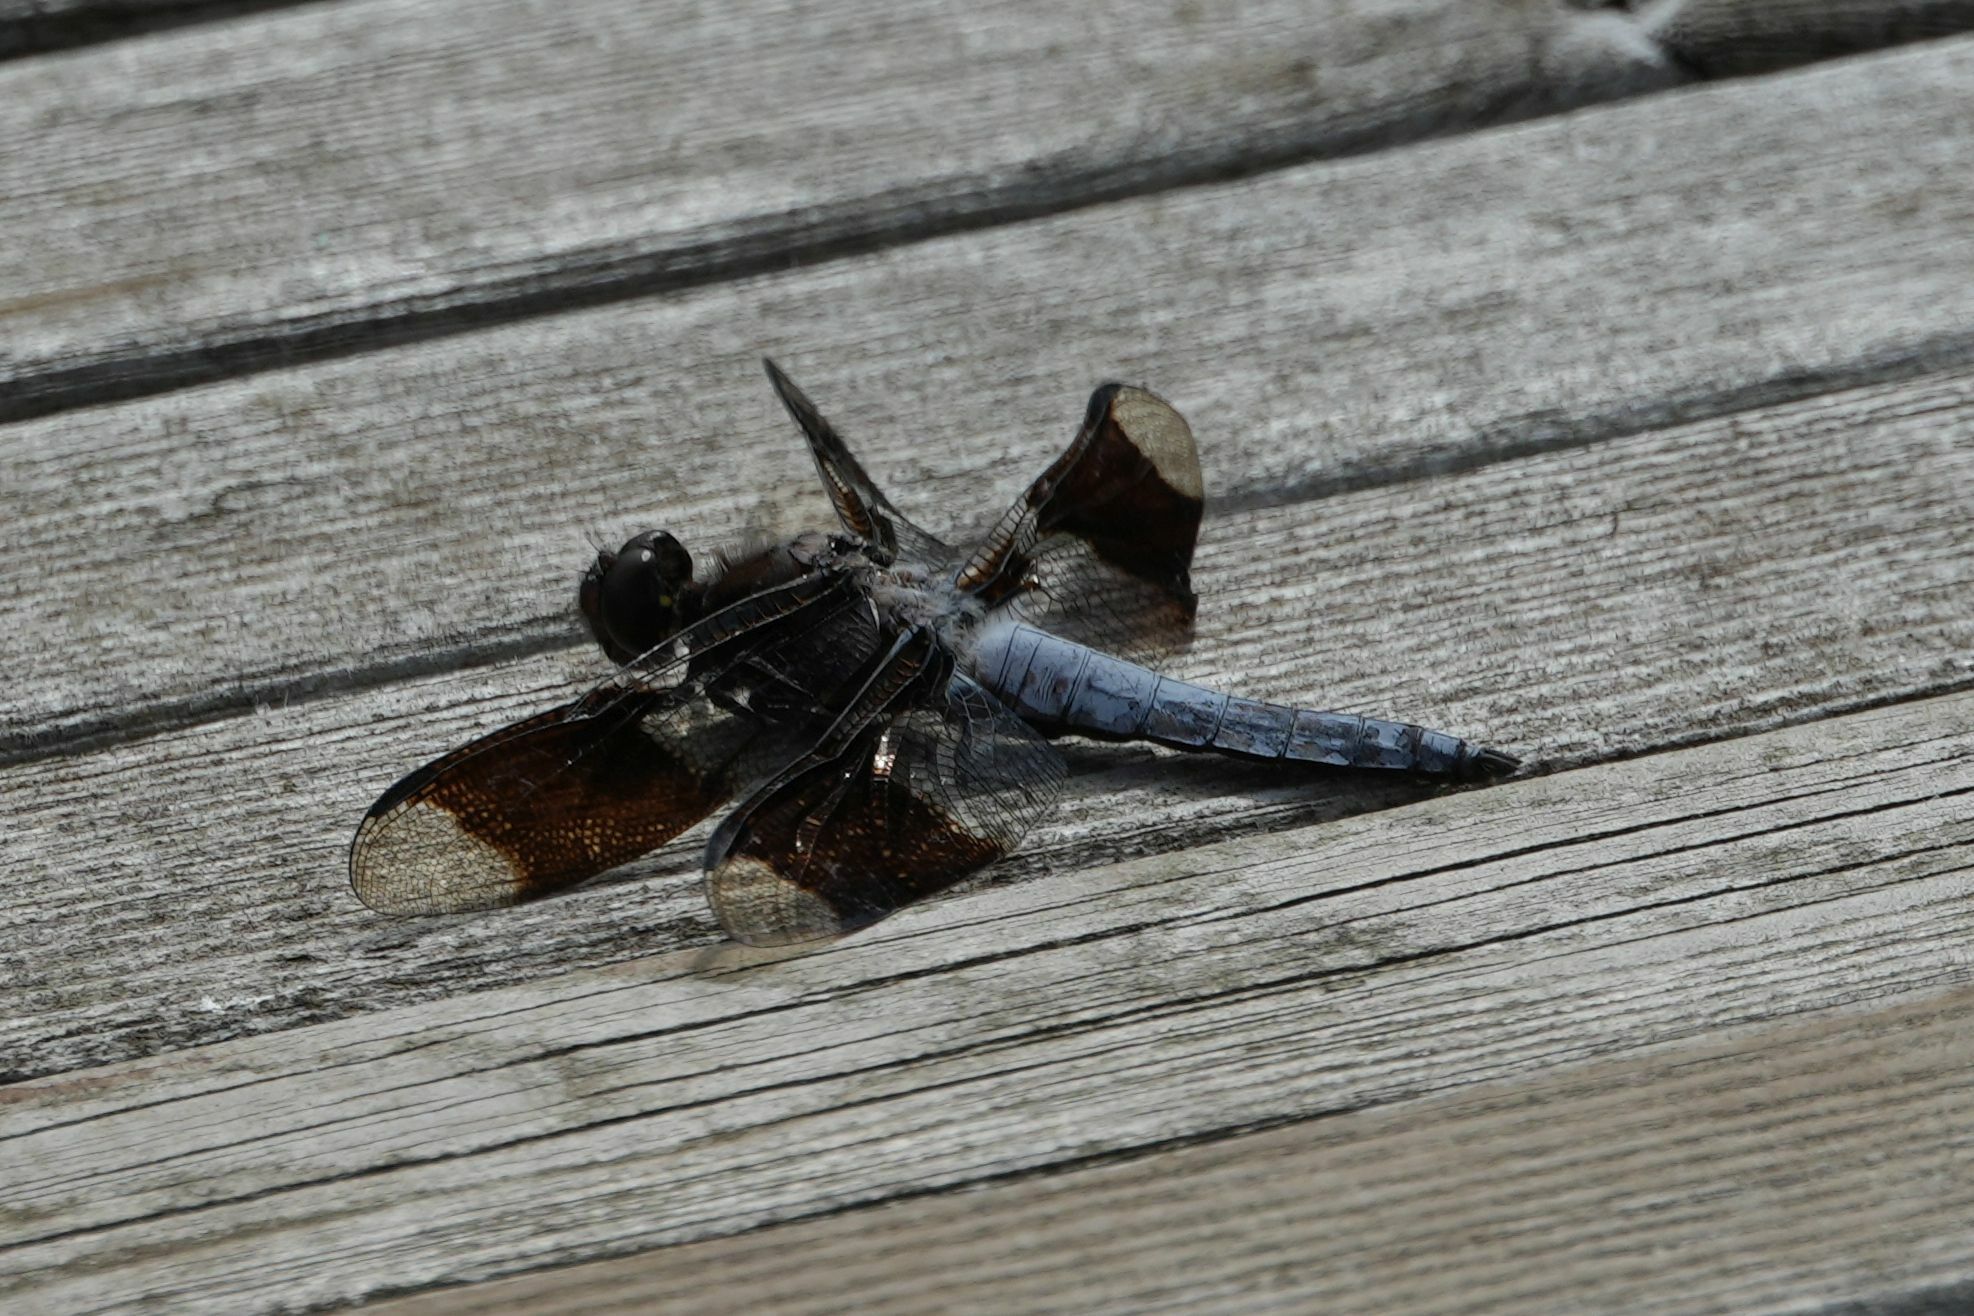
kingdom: Animalia
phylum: Arthropoda
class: Insecta
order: Odonata
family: Libellulidae
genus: Plathemis
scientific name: Plathemis lydia
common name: Common whitetail
